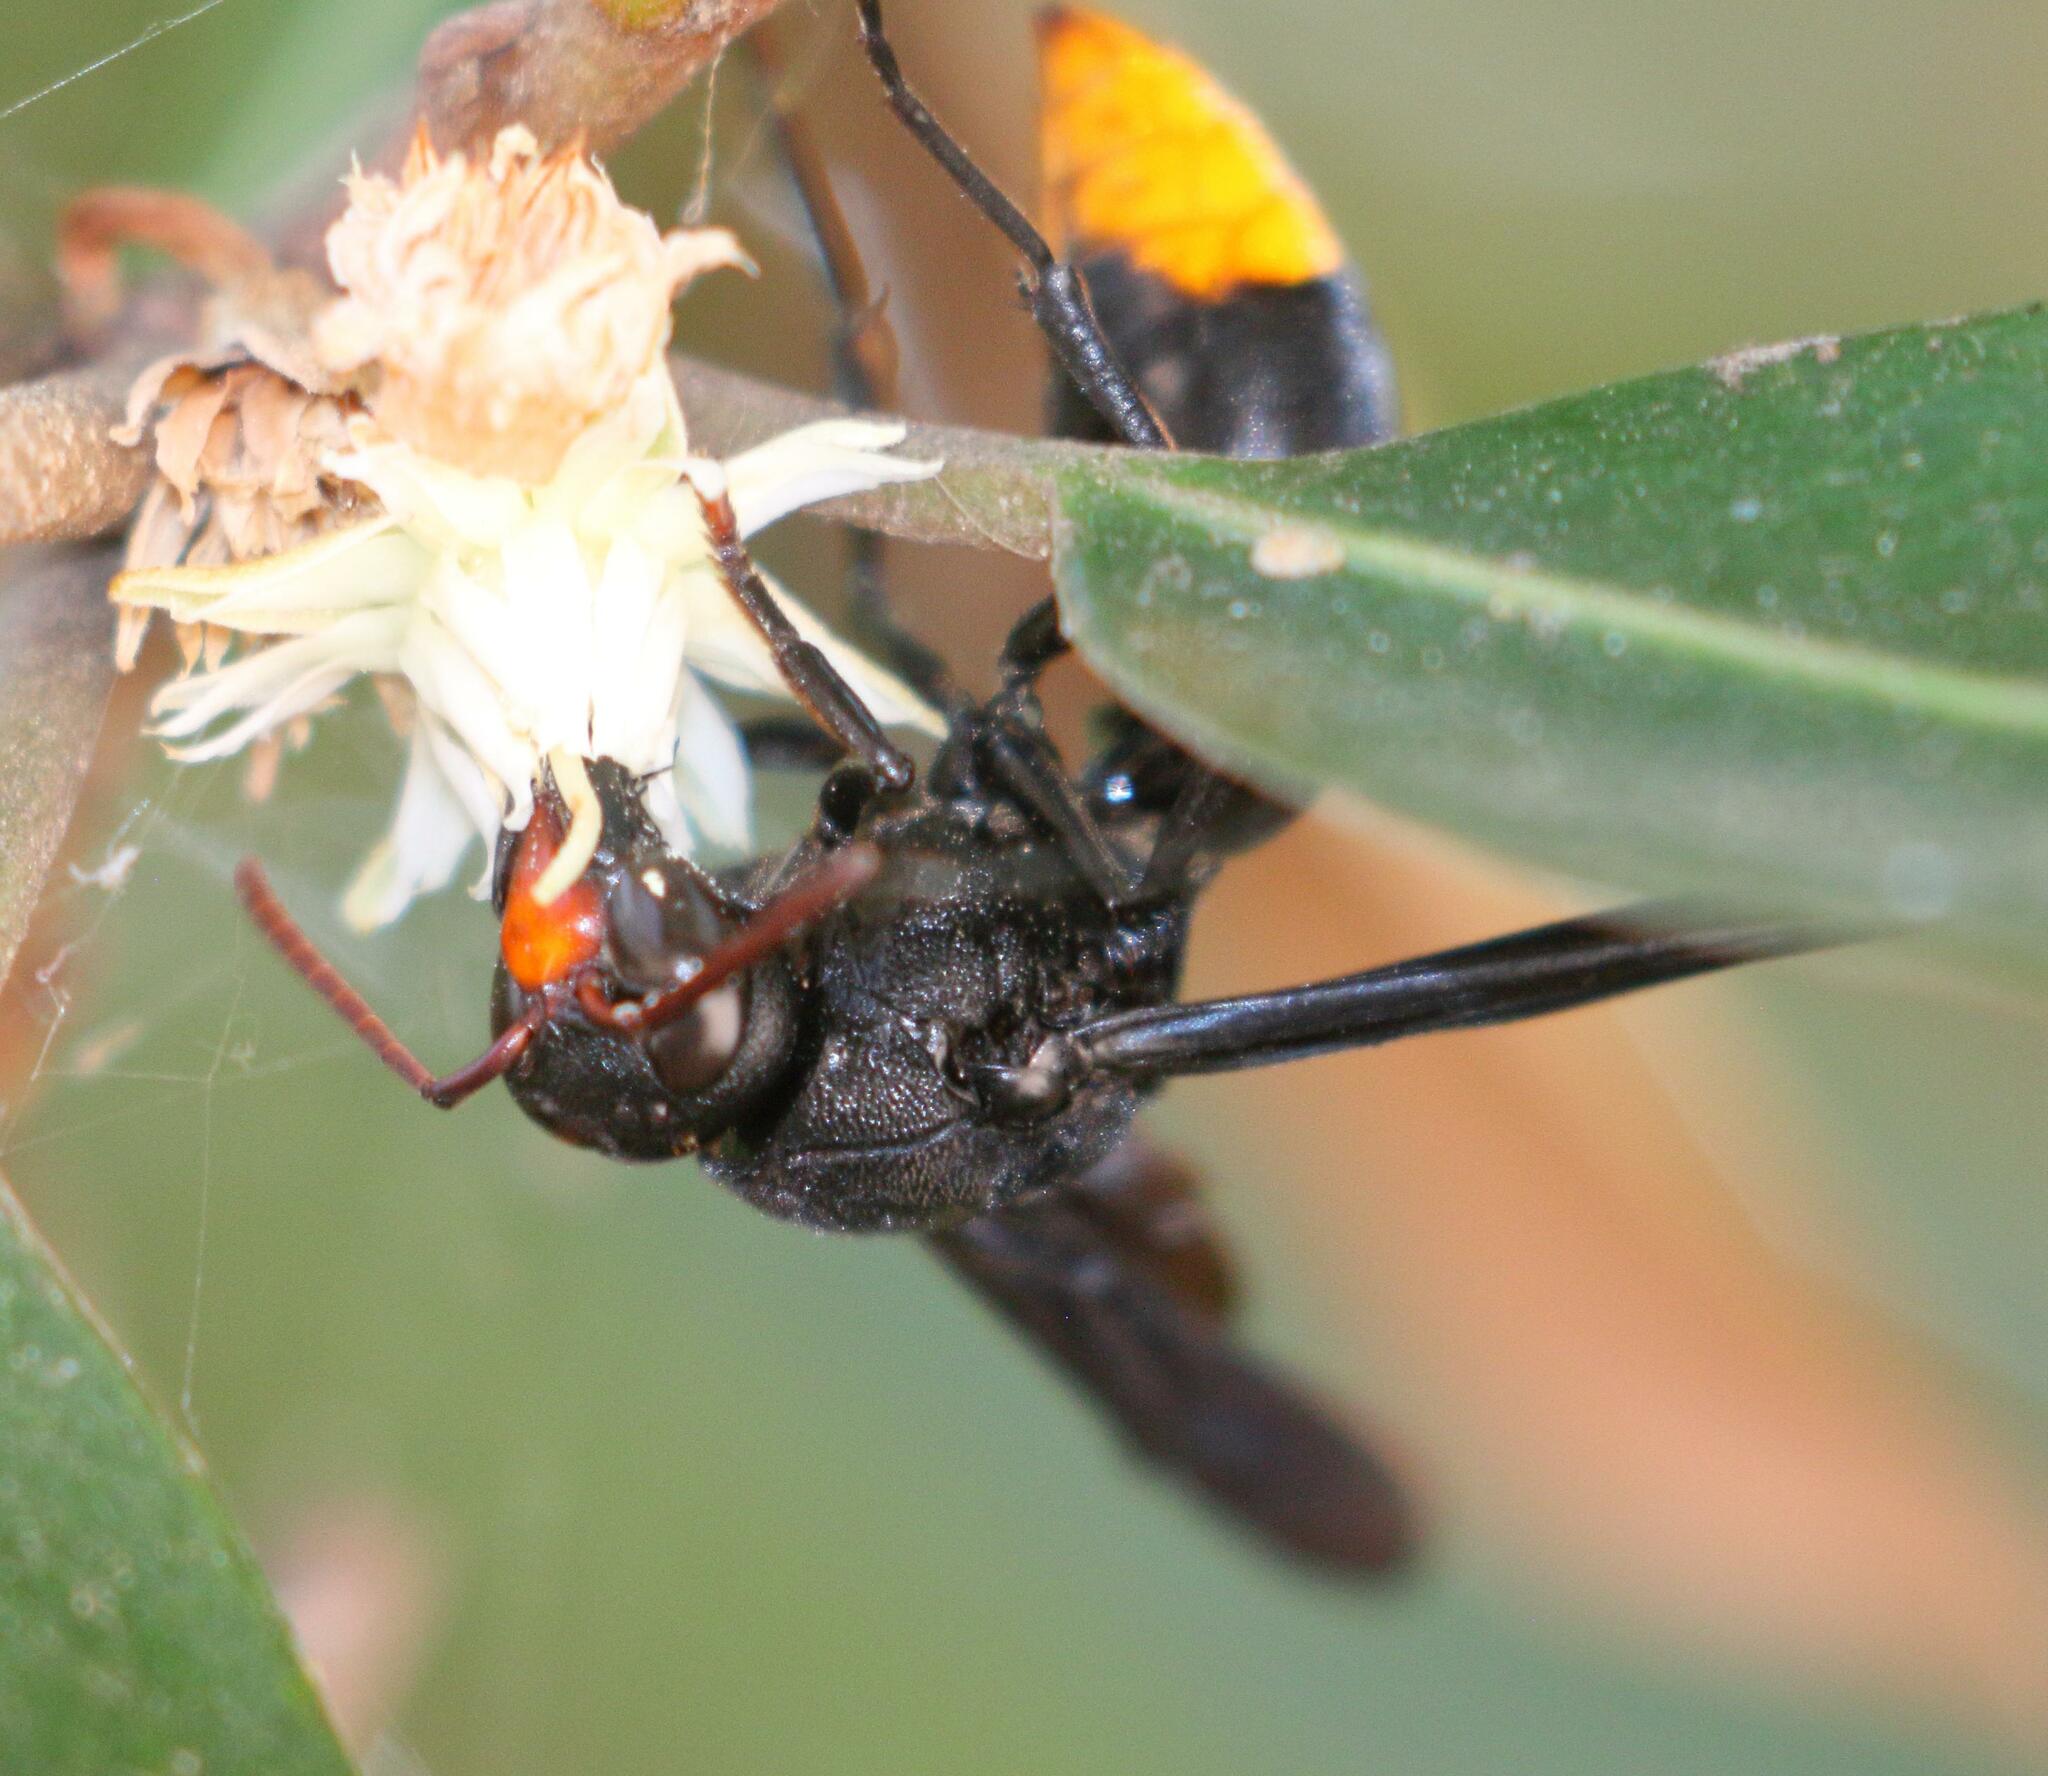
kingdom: Animalia
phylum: Arthropoda
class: Insecta
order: Hymenoptera
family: Vespidae
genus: Synagris
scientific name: Synagris
